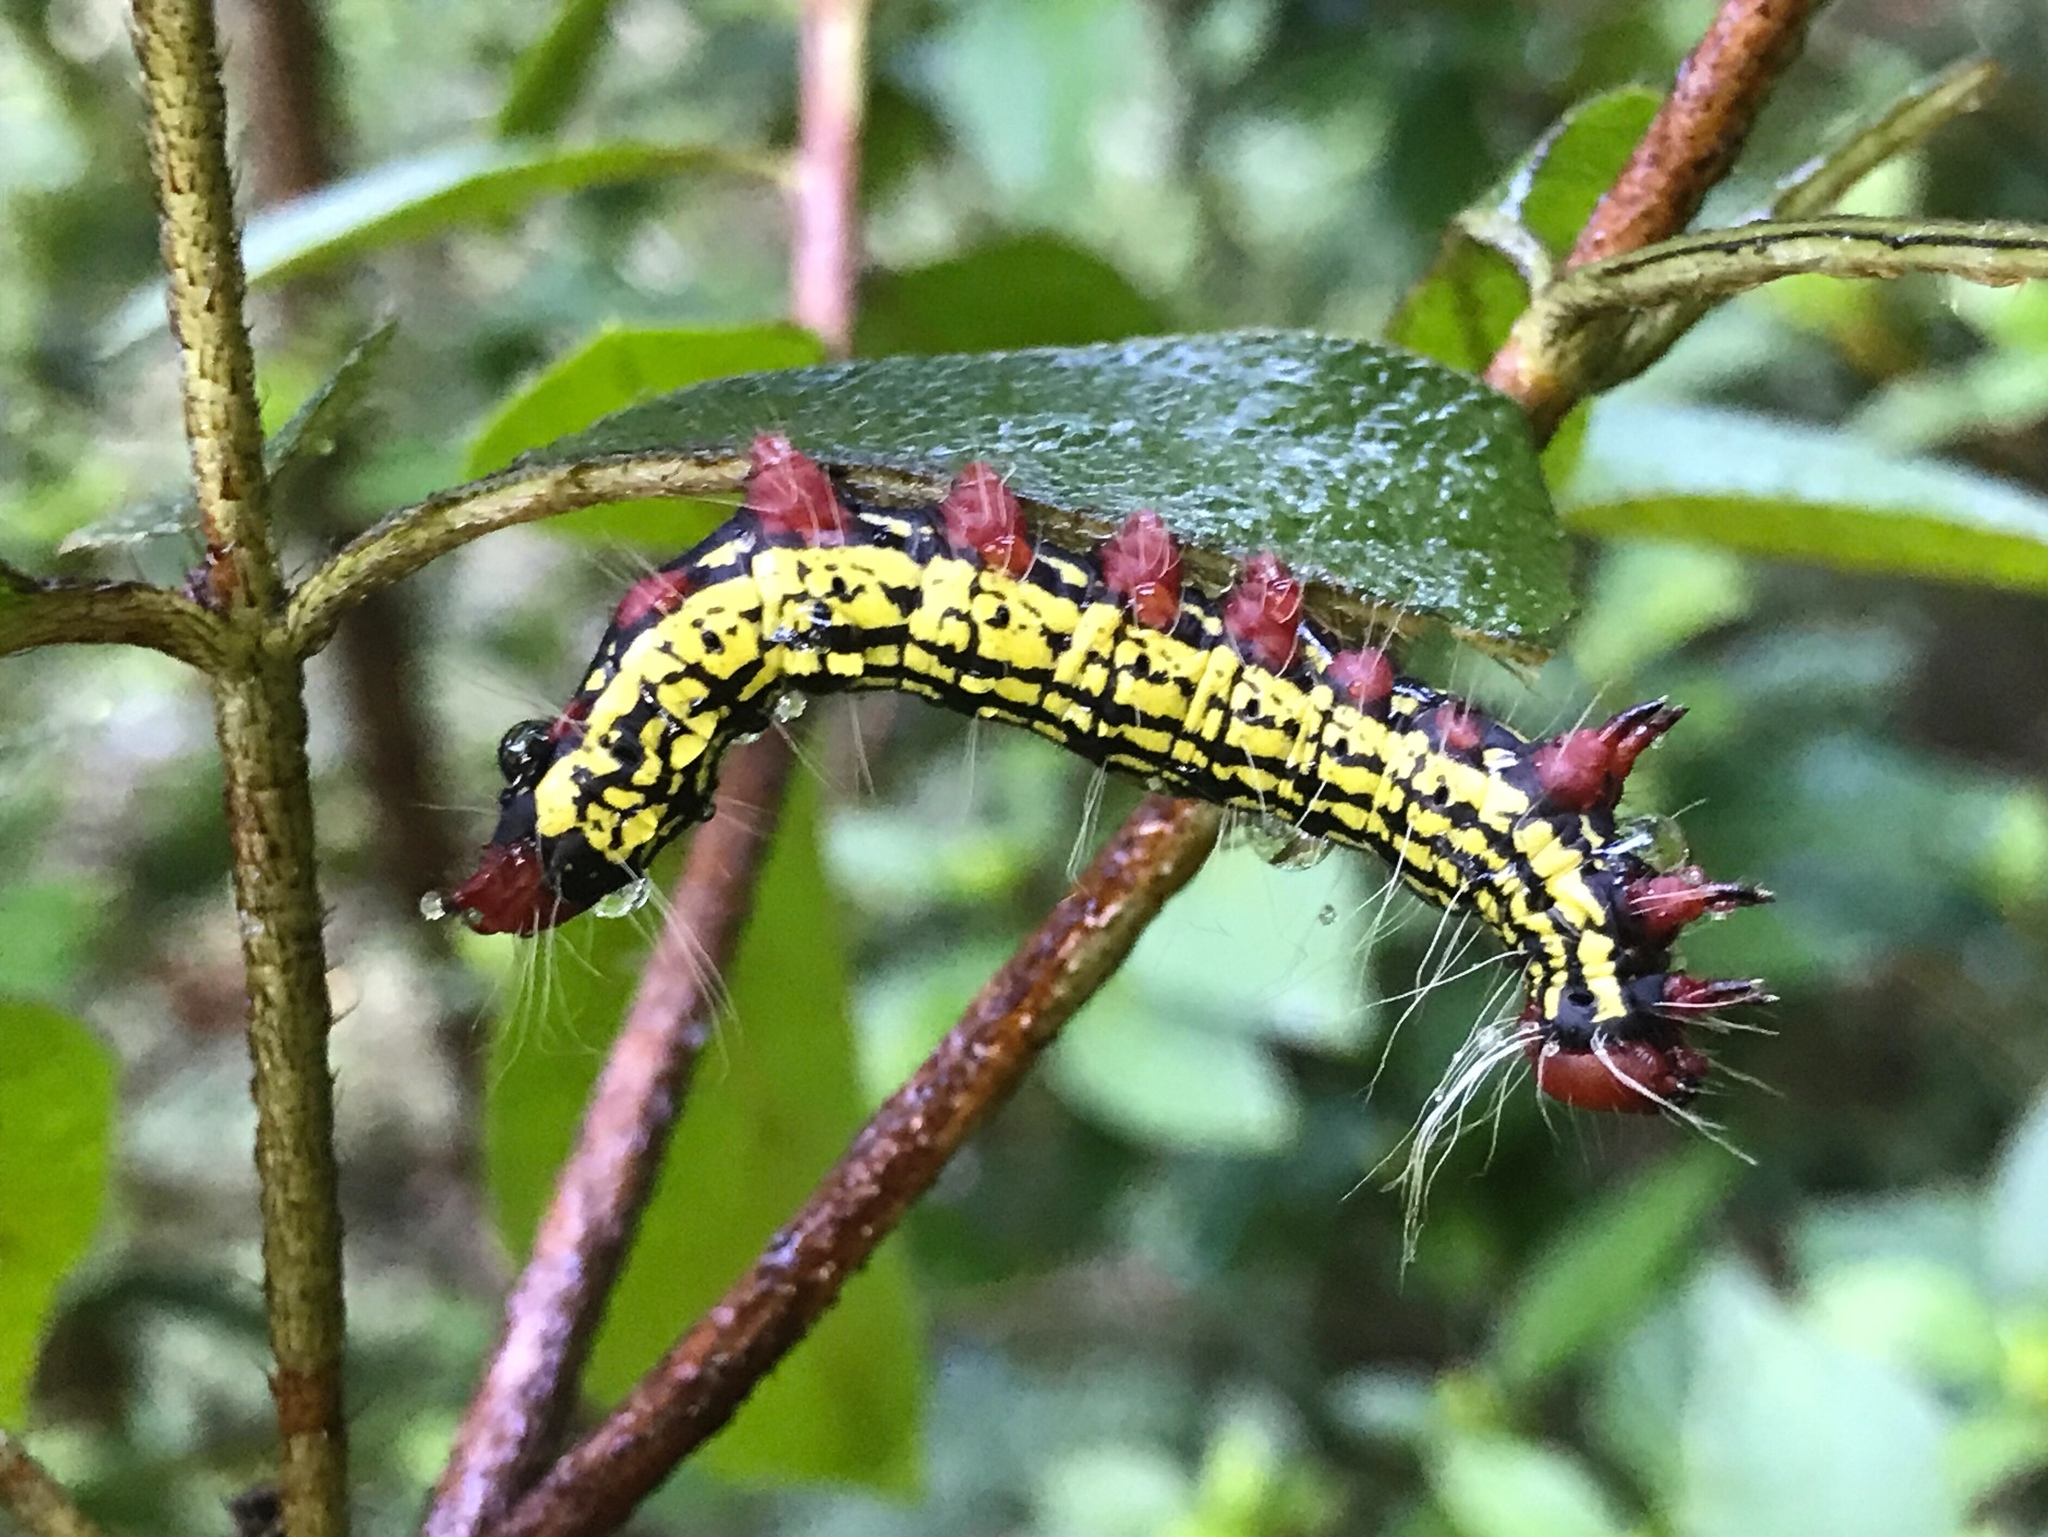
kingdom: Animalia
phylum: Arthropoda
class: Insecta
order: Lepidoptera
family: Notodontidae
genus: Datana
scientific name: Datana major
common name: Azalea caterpillar
